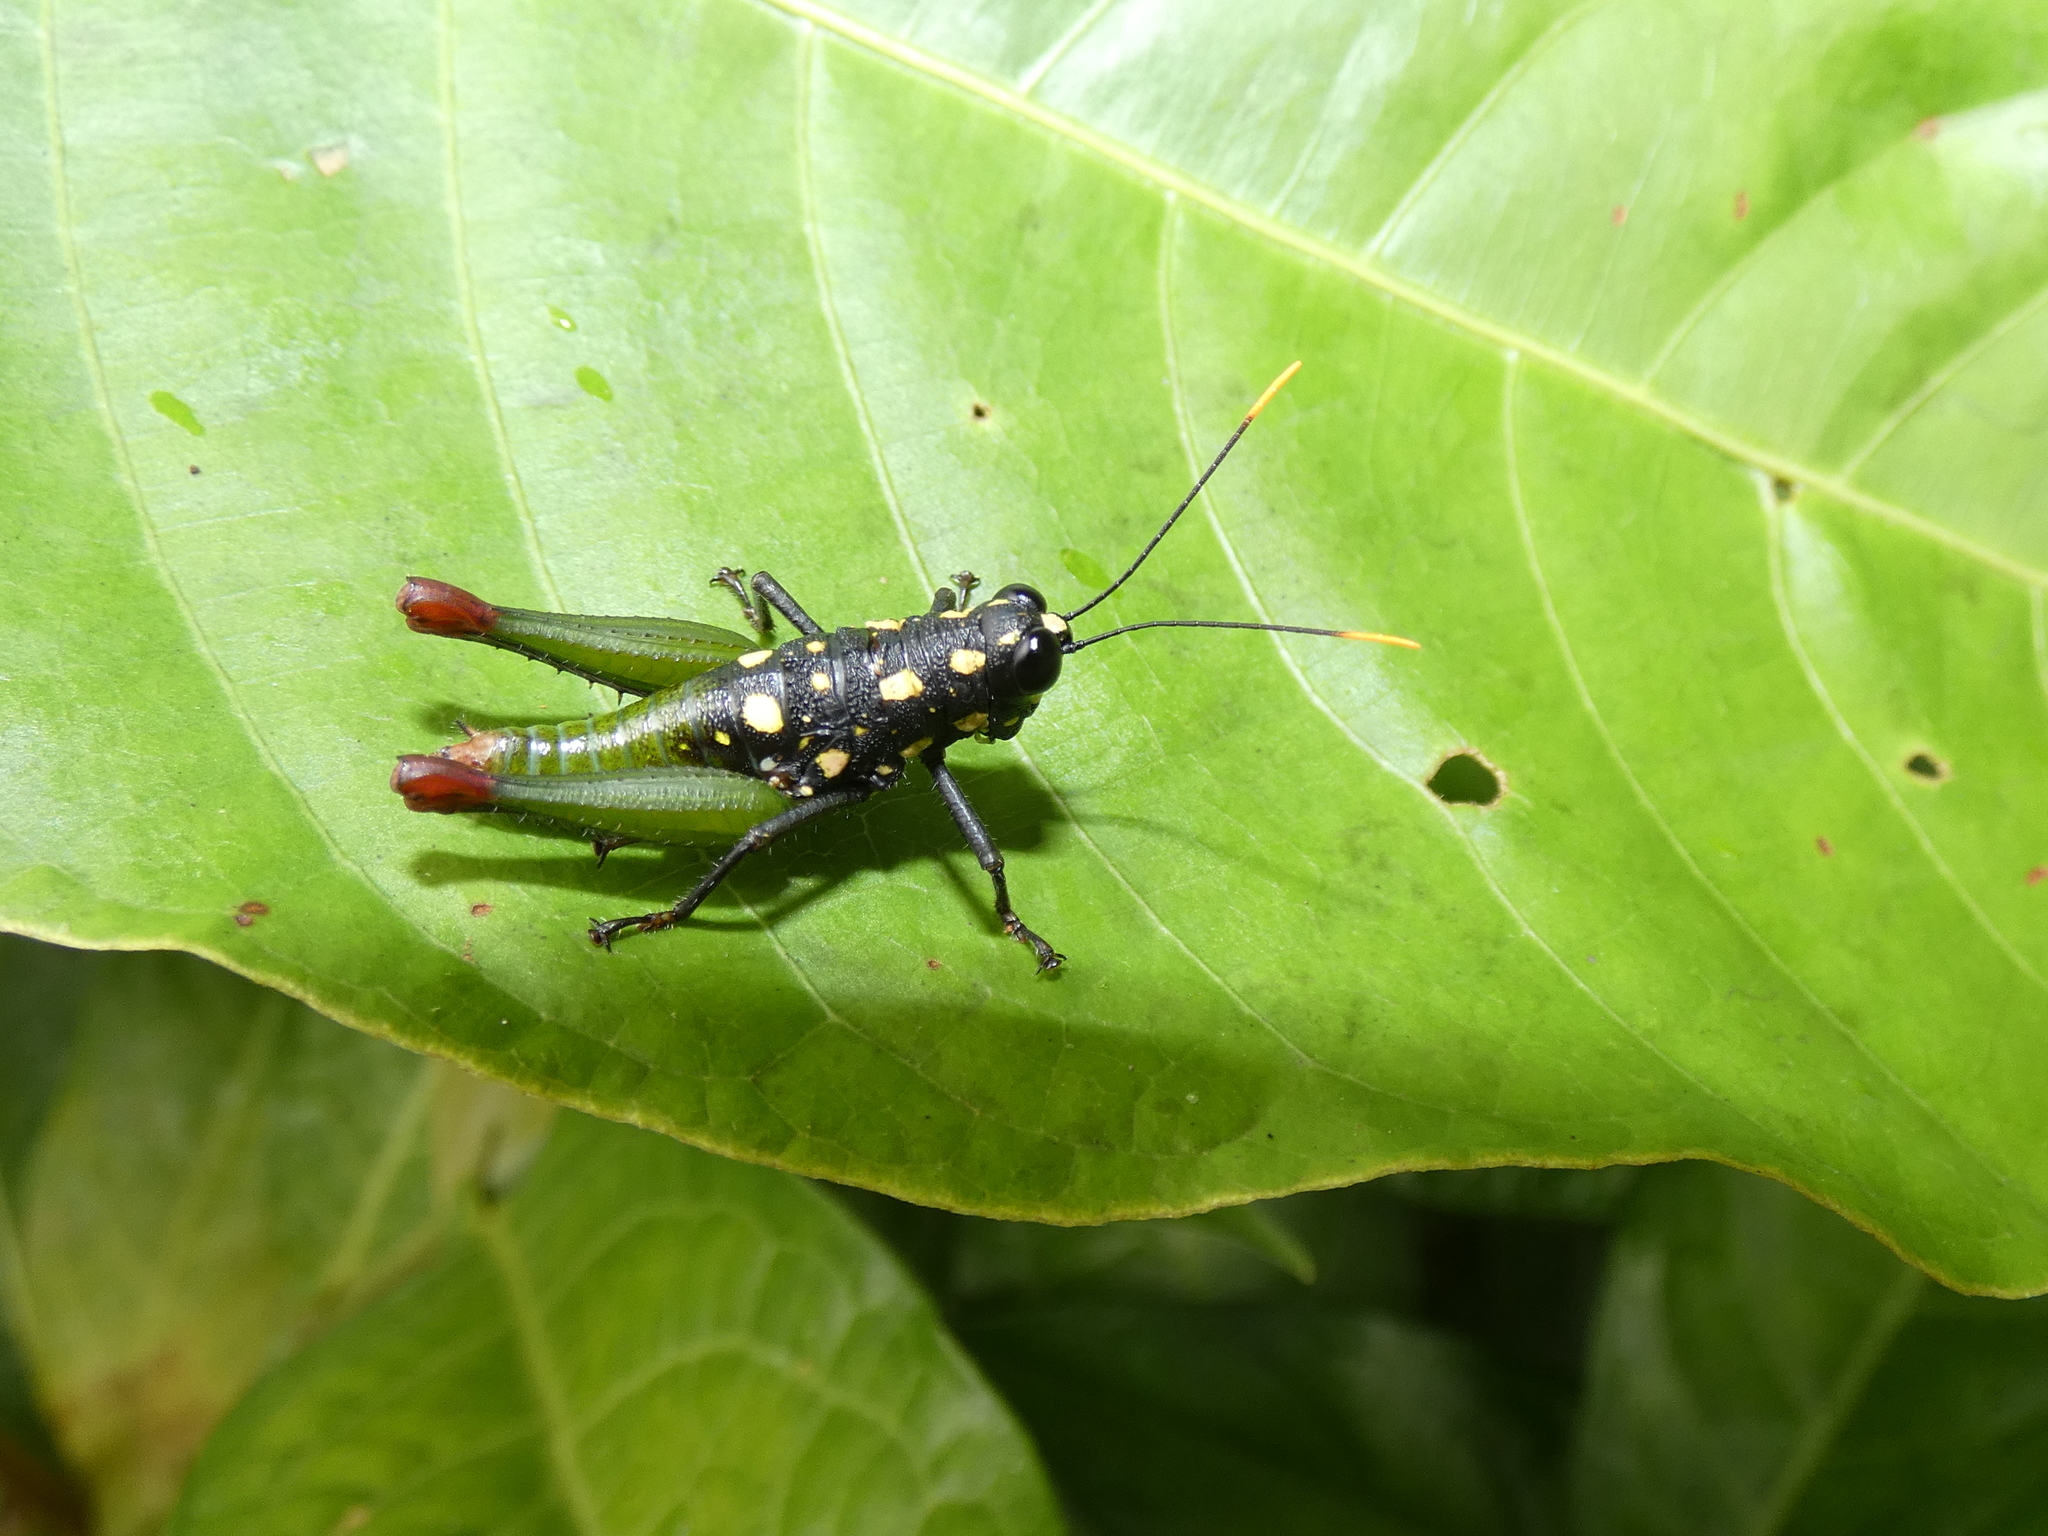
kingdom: Animalia
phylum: Arthropoda
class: Insecta
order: Orthoptera
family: Acrididae
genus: Galidacris
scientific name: Galidacris eckardtae
